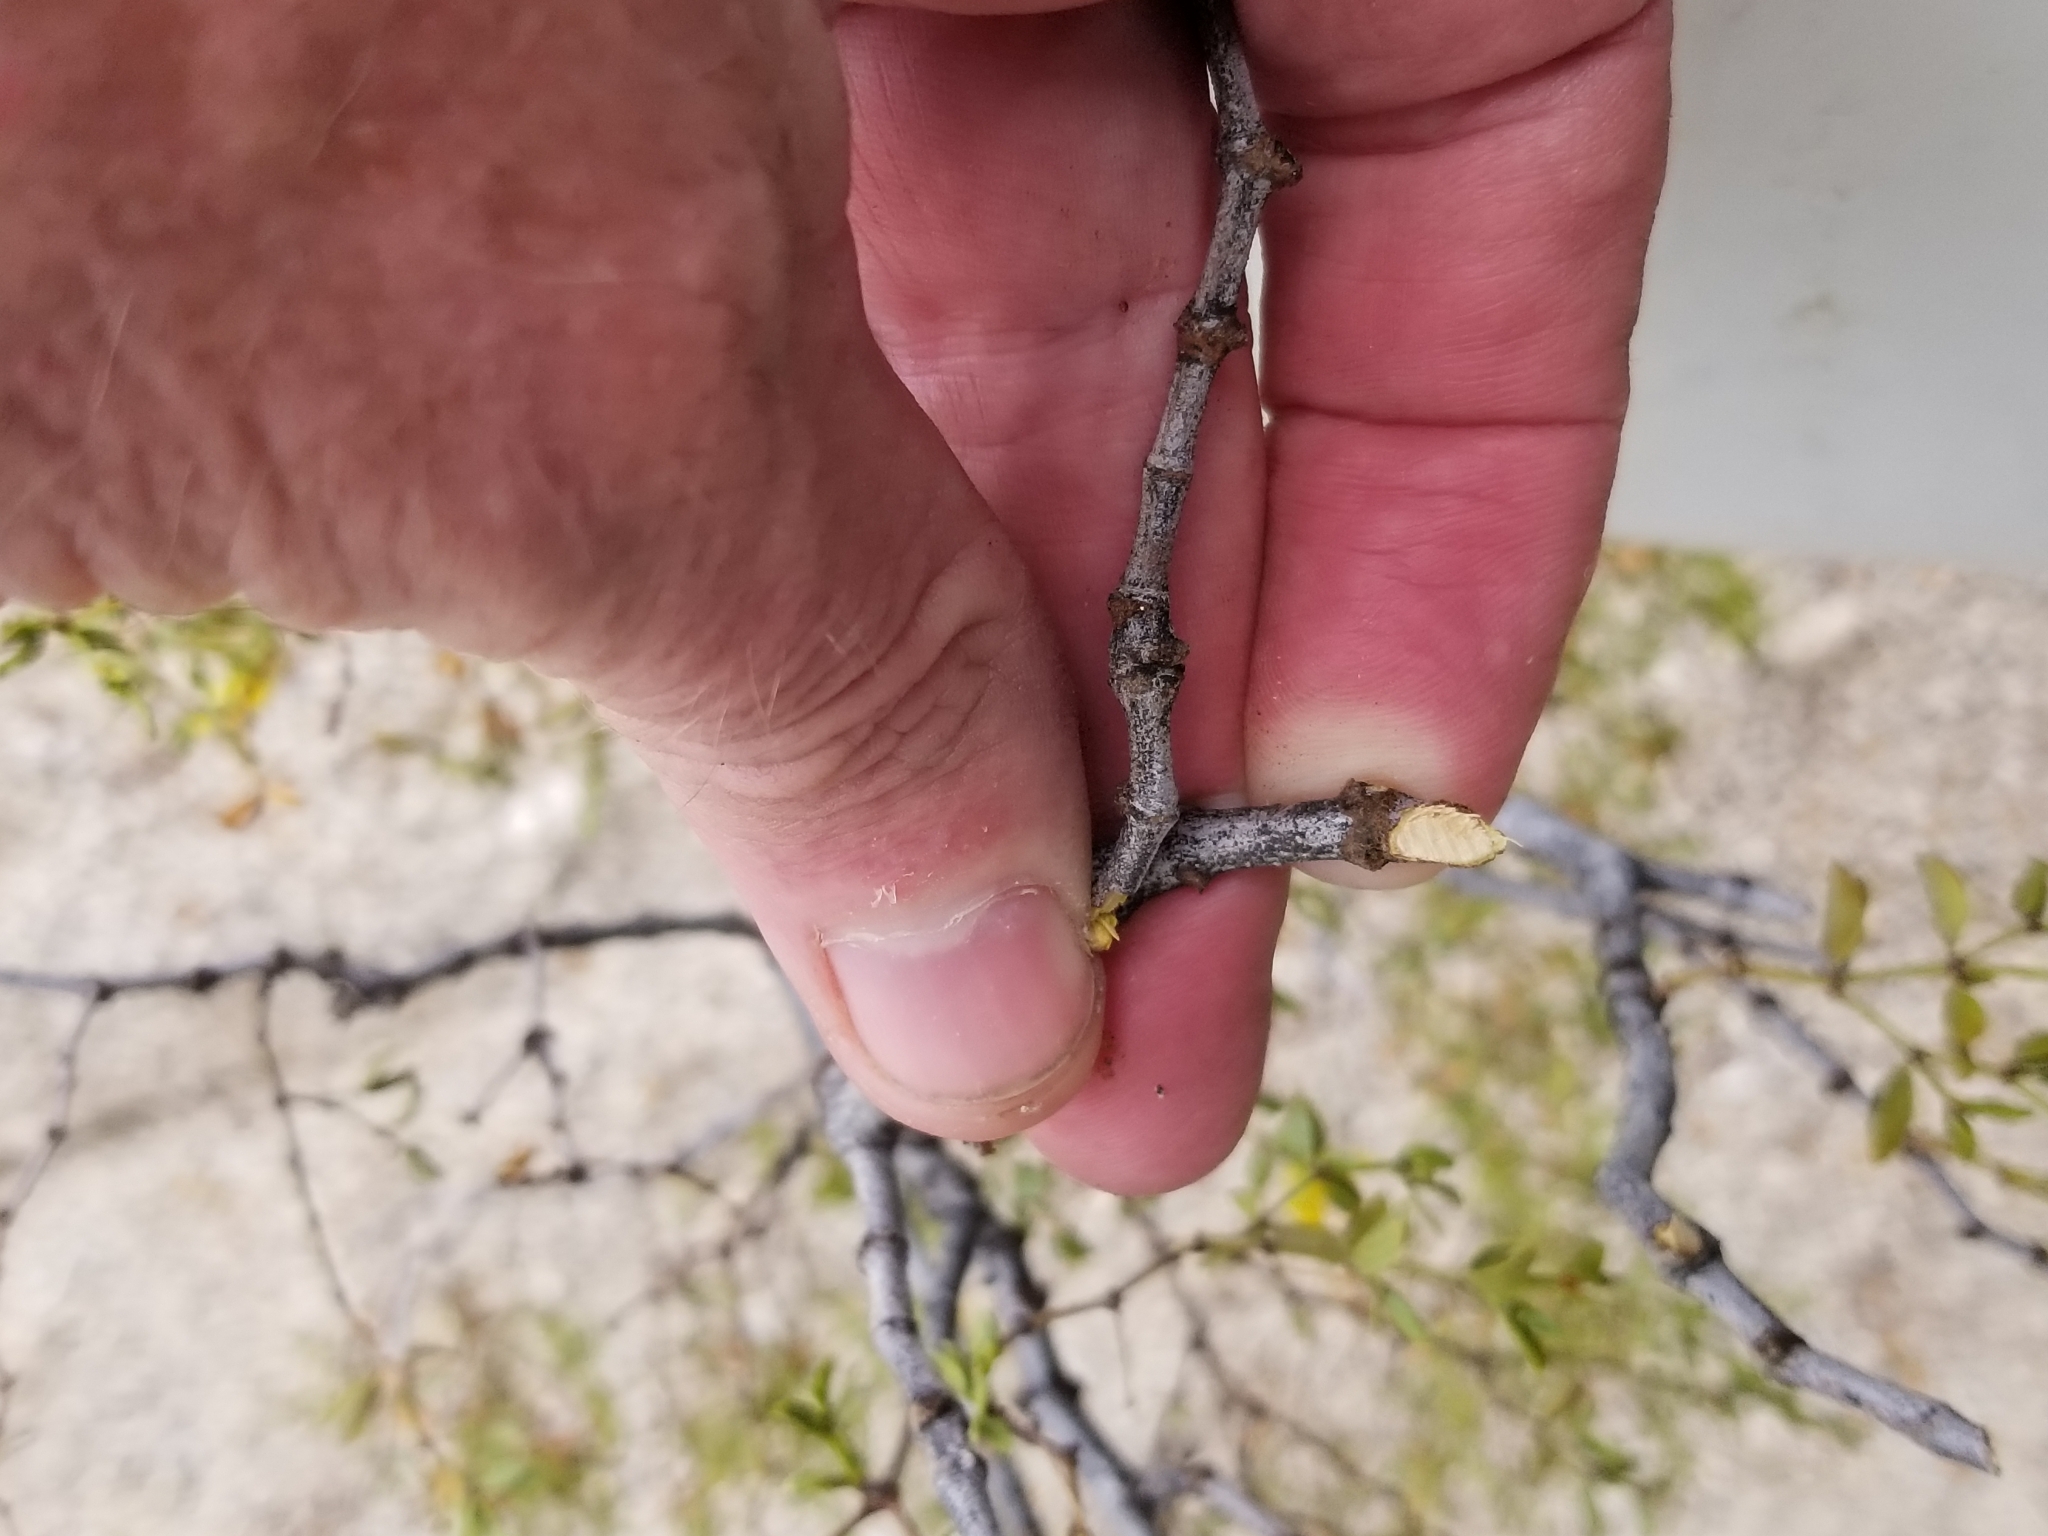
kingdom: Plantae
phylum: Tracheophyta
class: Magnoliopsida
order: Zygophyllales
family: Zygophyllaceae
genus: Larrea
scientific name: Larrea tridentata
